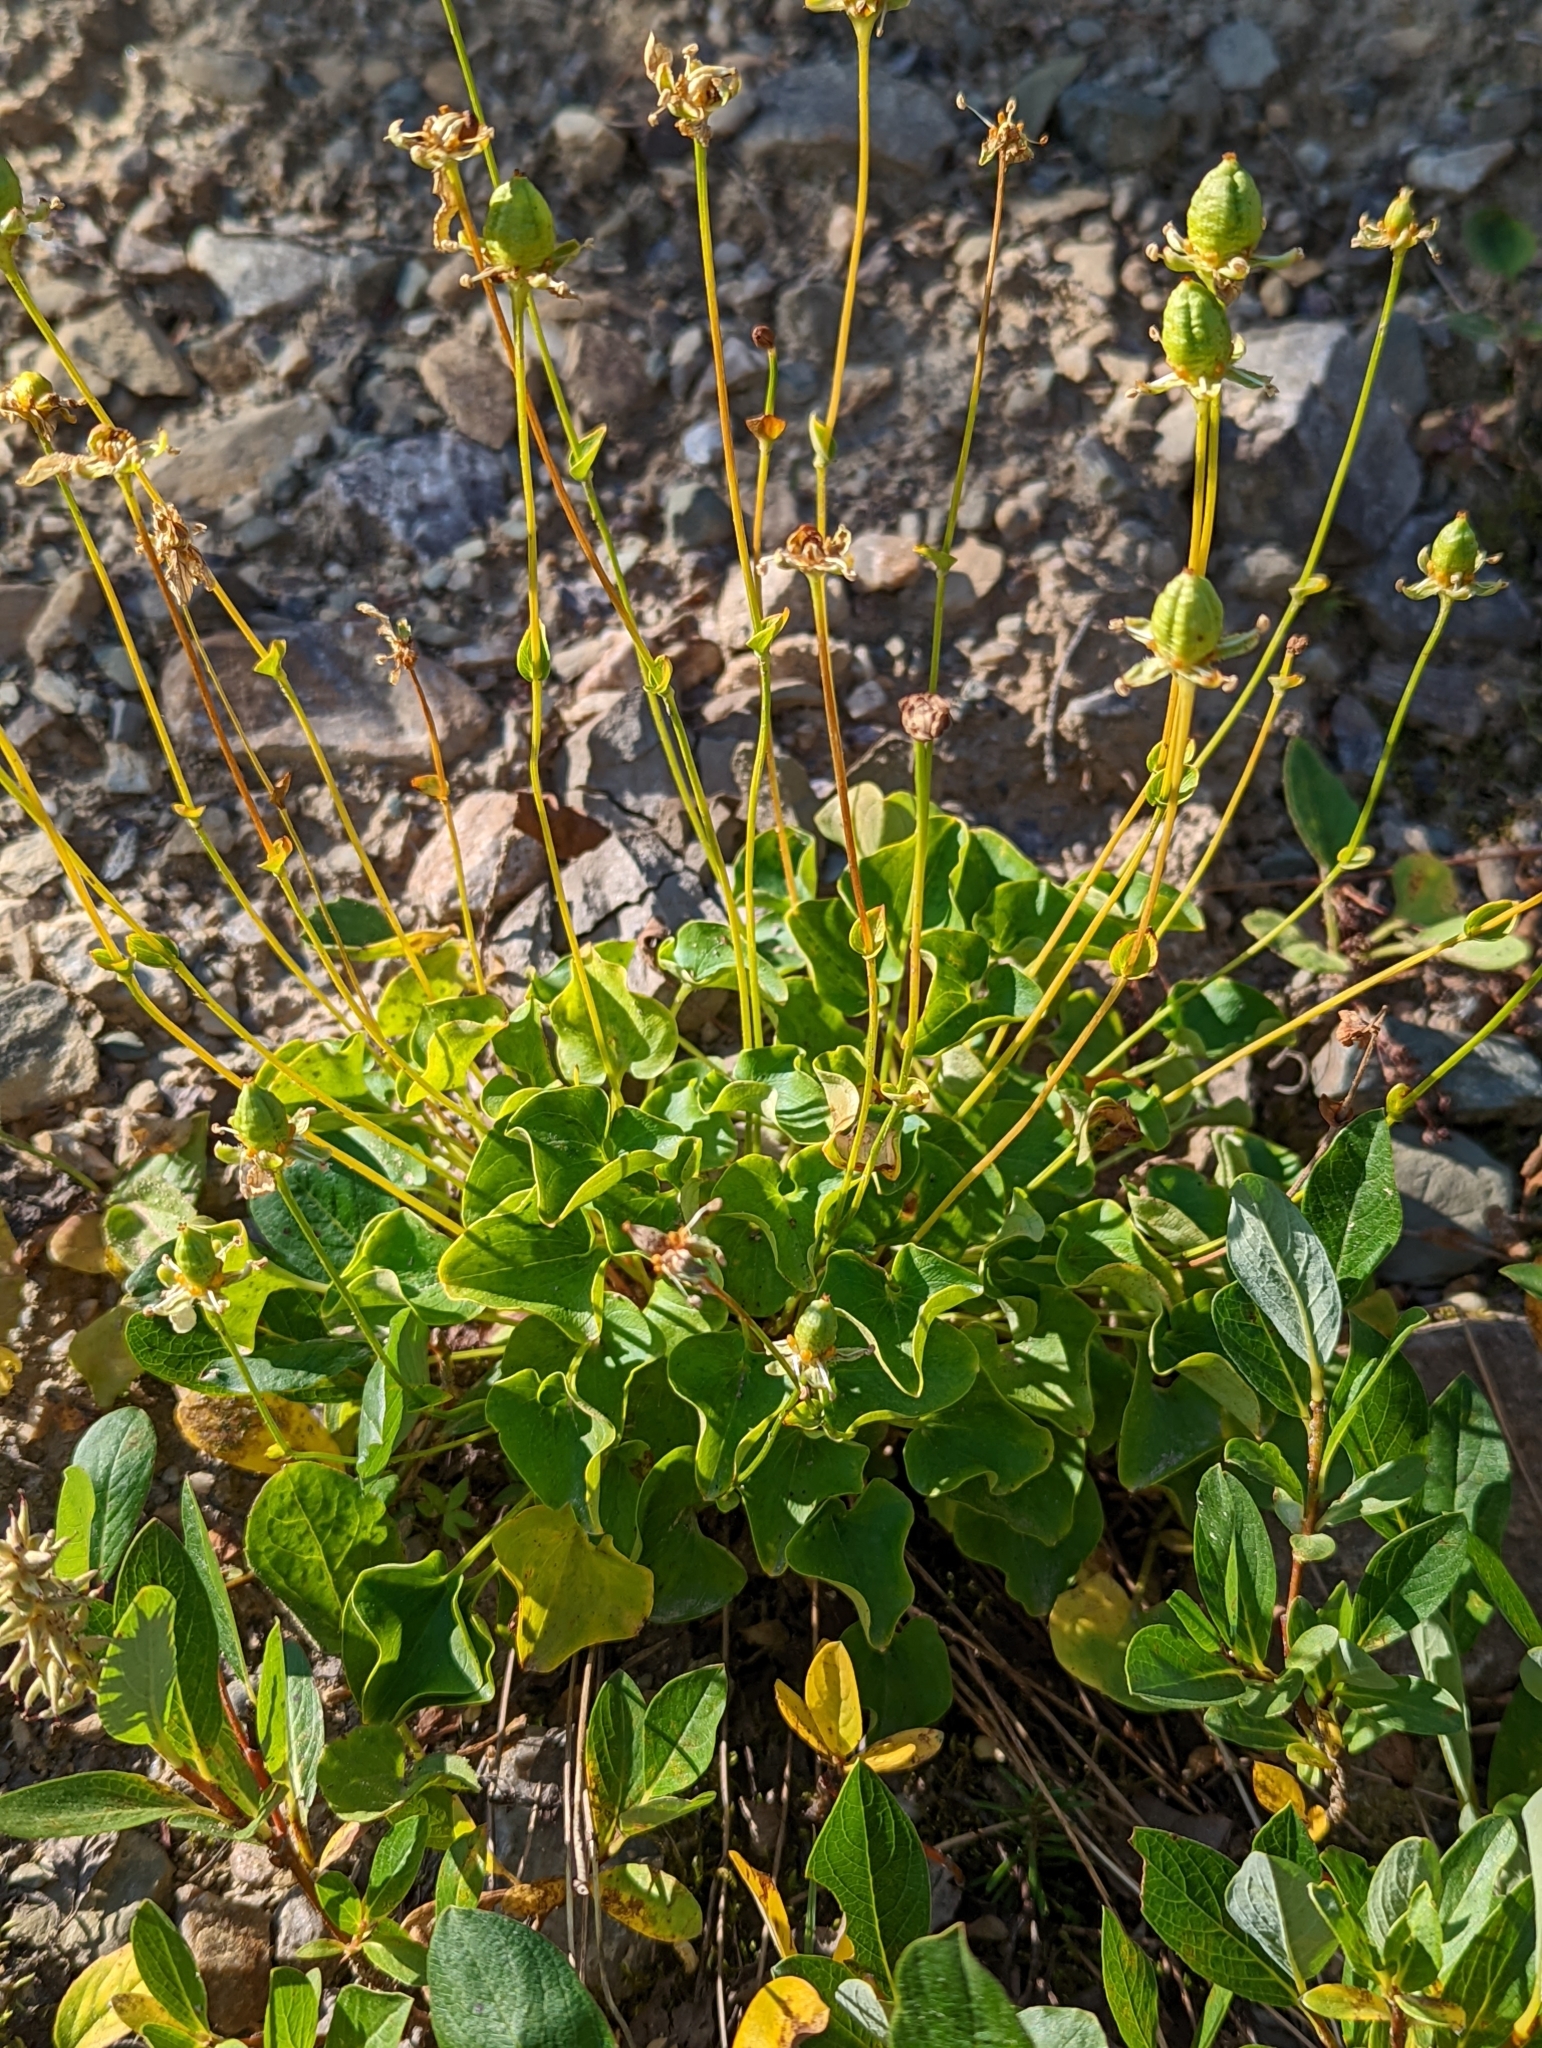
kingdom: Plantae
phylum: Tracheophyta
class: Magnoliopsida
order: Celastrales
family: Parnassiaceae
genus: Parnassia
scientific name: Parnassia fimbriata
